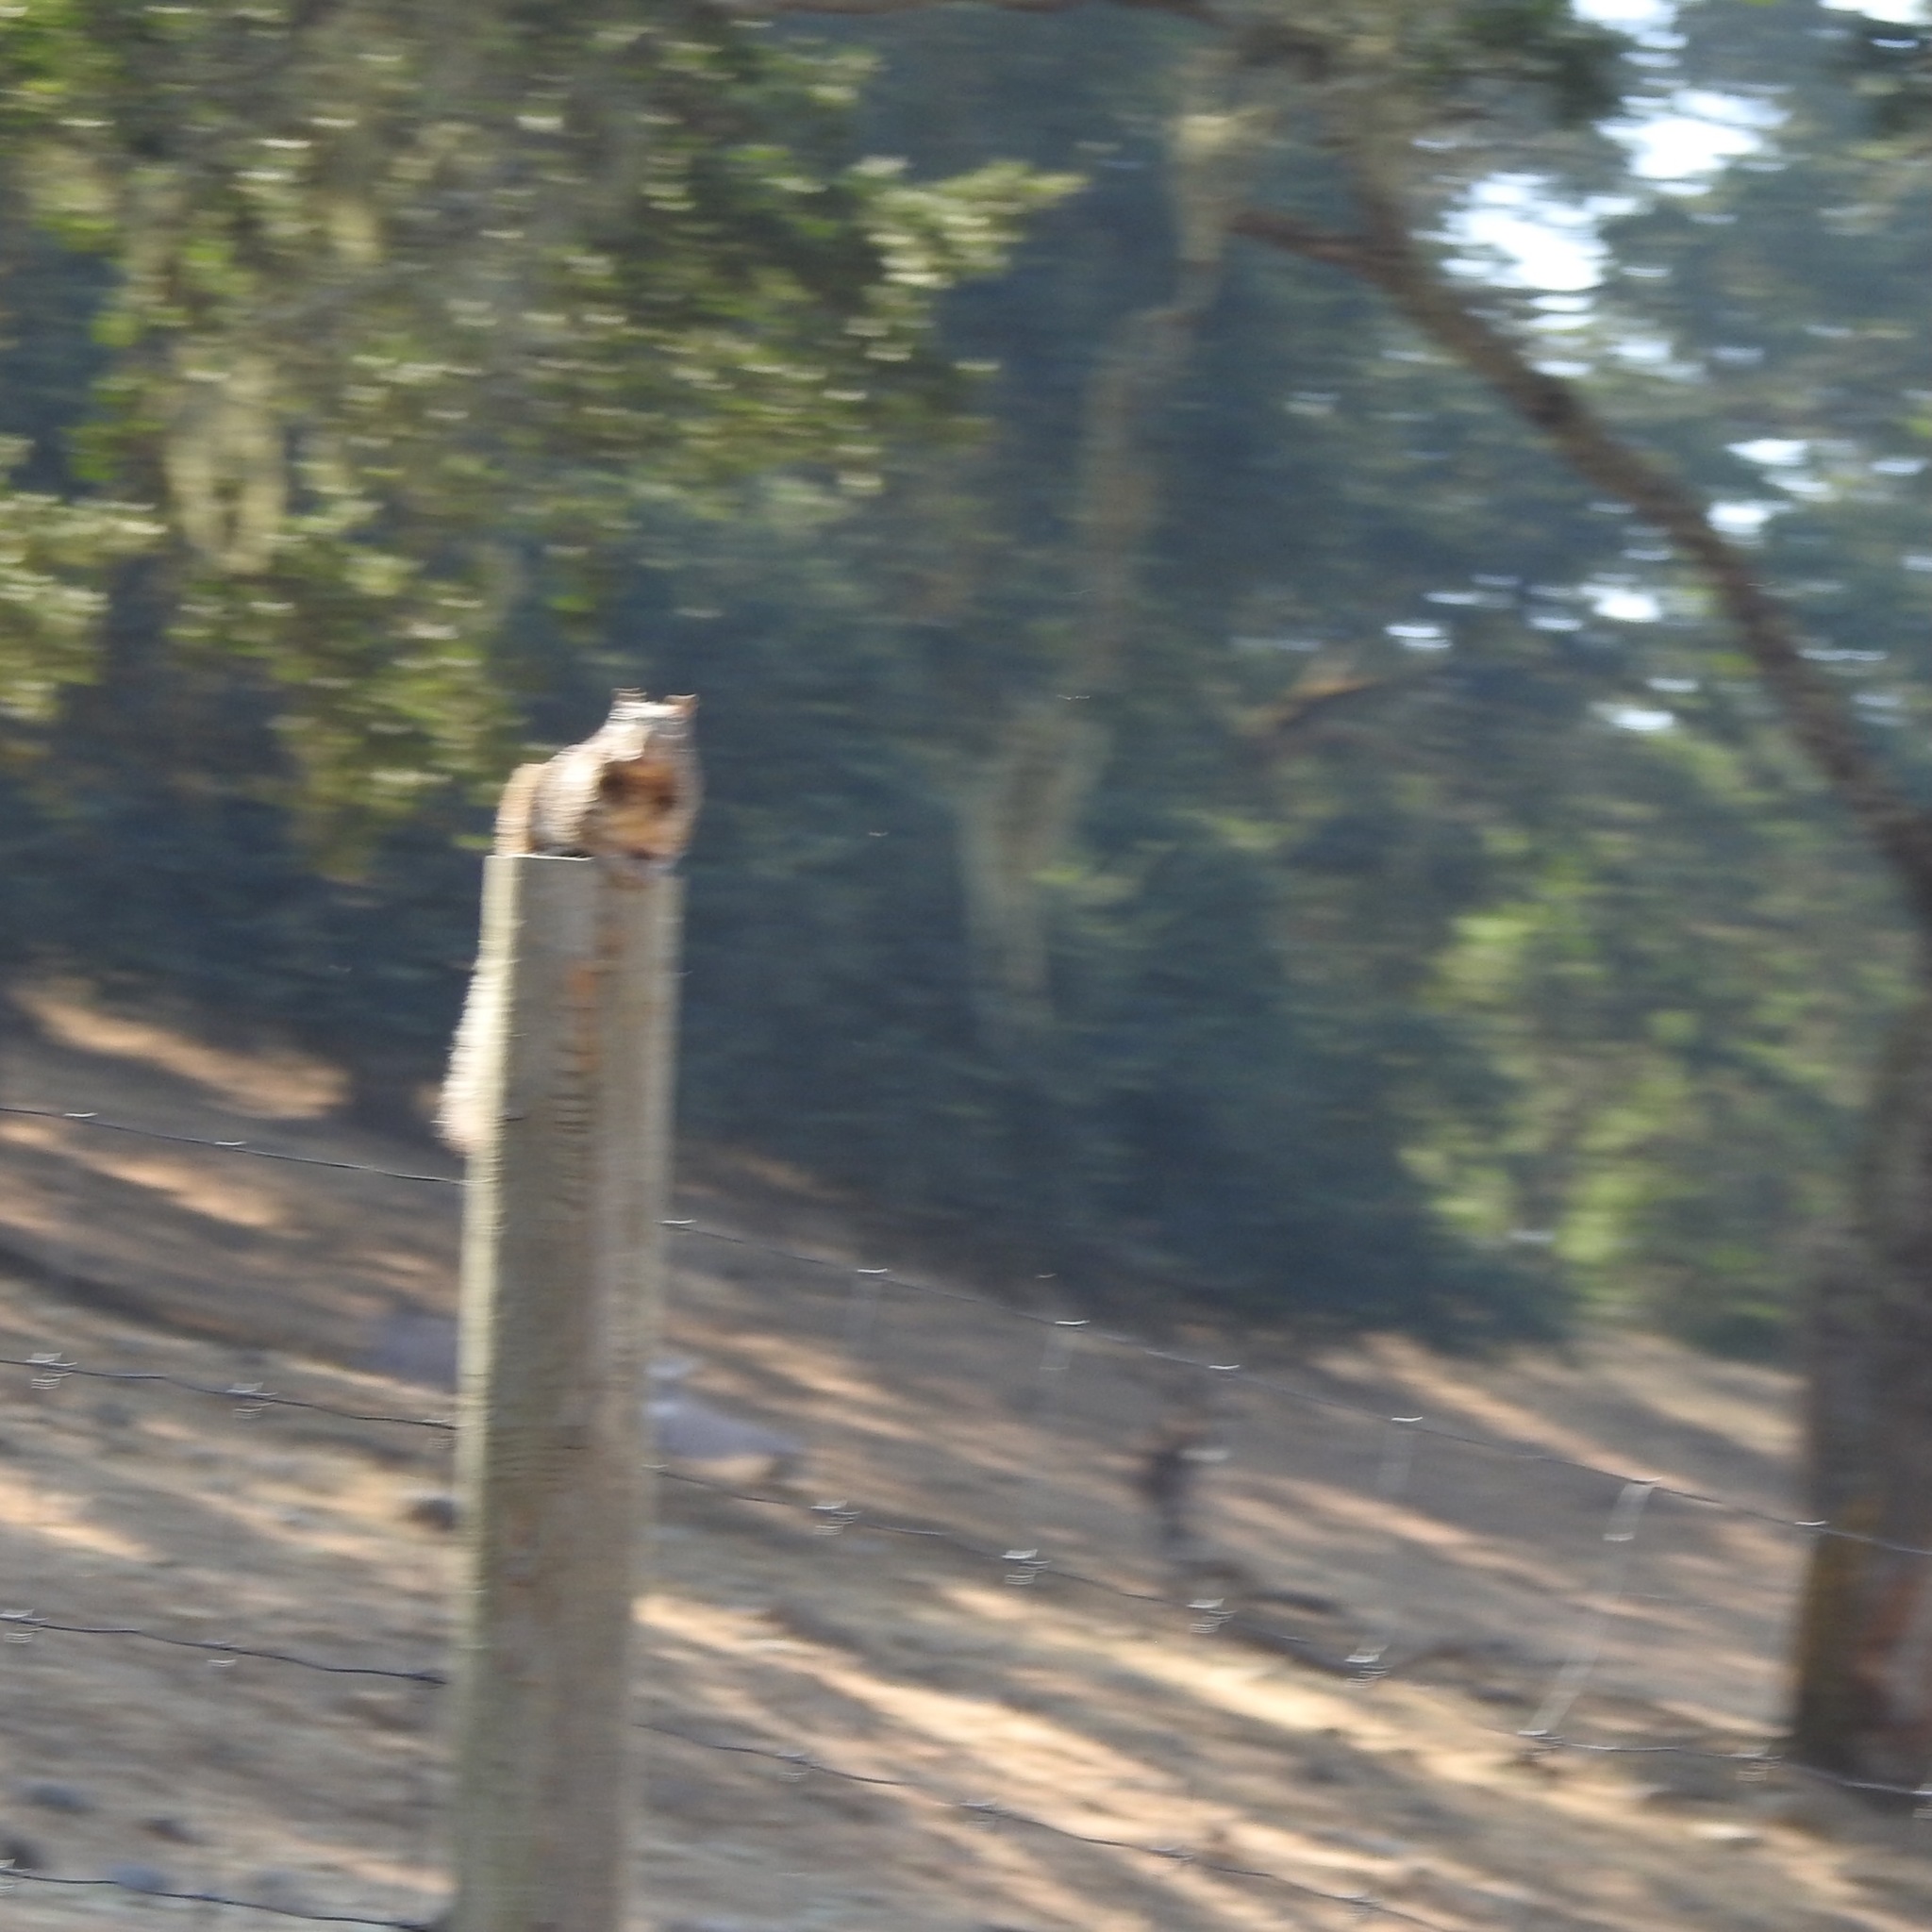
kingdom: Animalia
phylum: Chordata
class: Mammalia
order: Rodentia
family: Sciuridae
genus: Otospermophilus
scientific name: Otospermophilus beecheyi
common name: California ground squirrel
